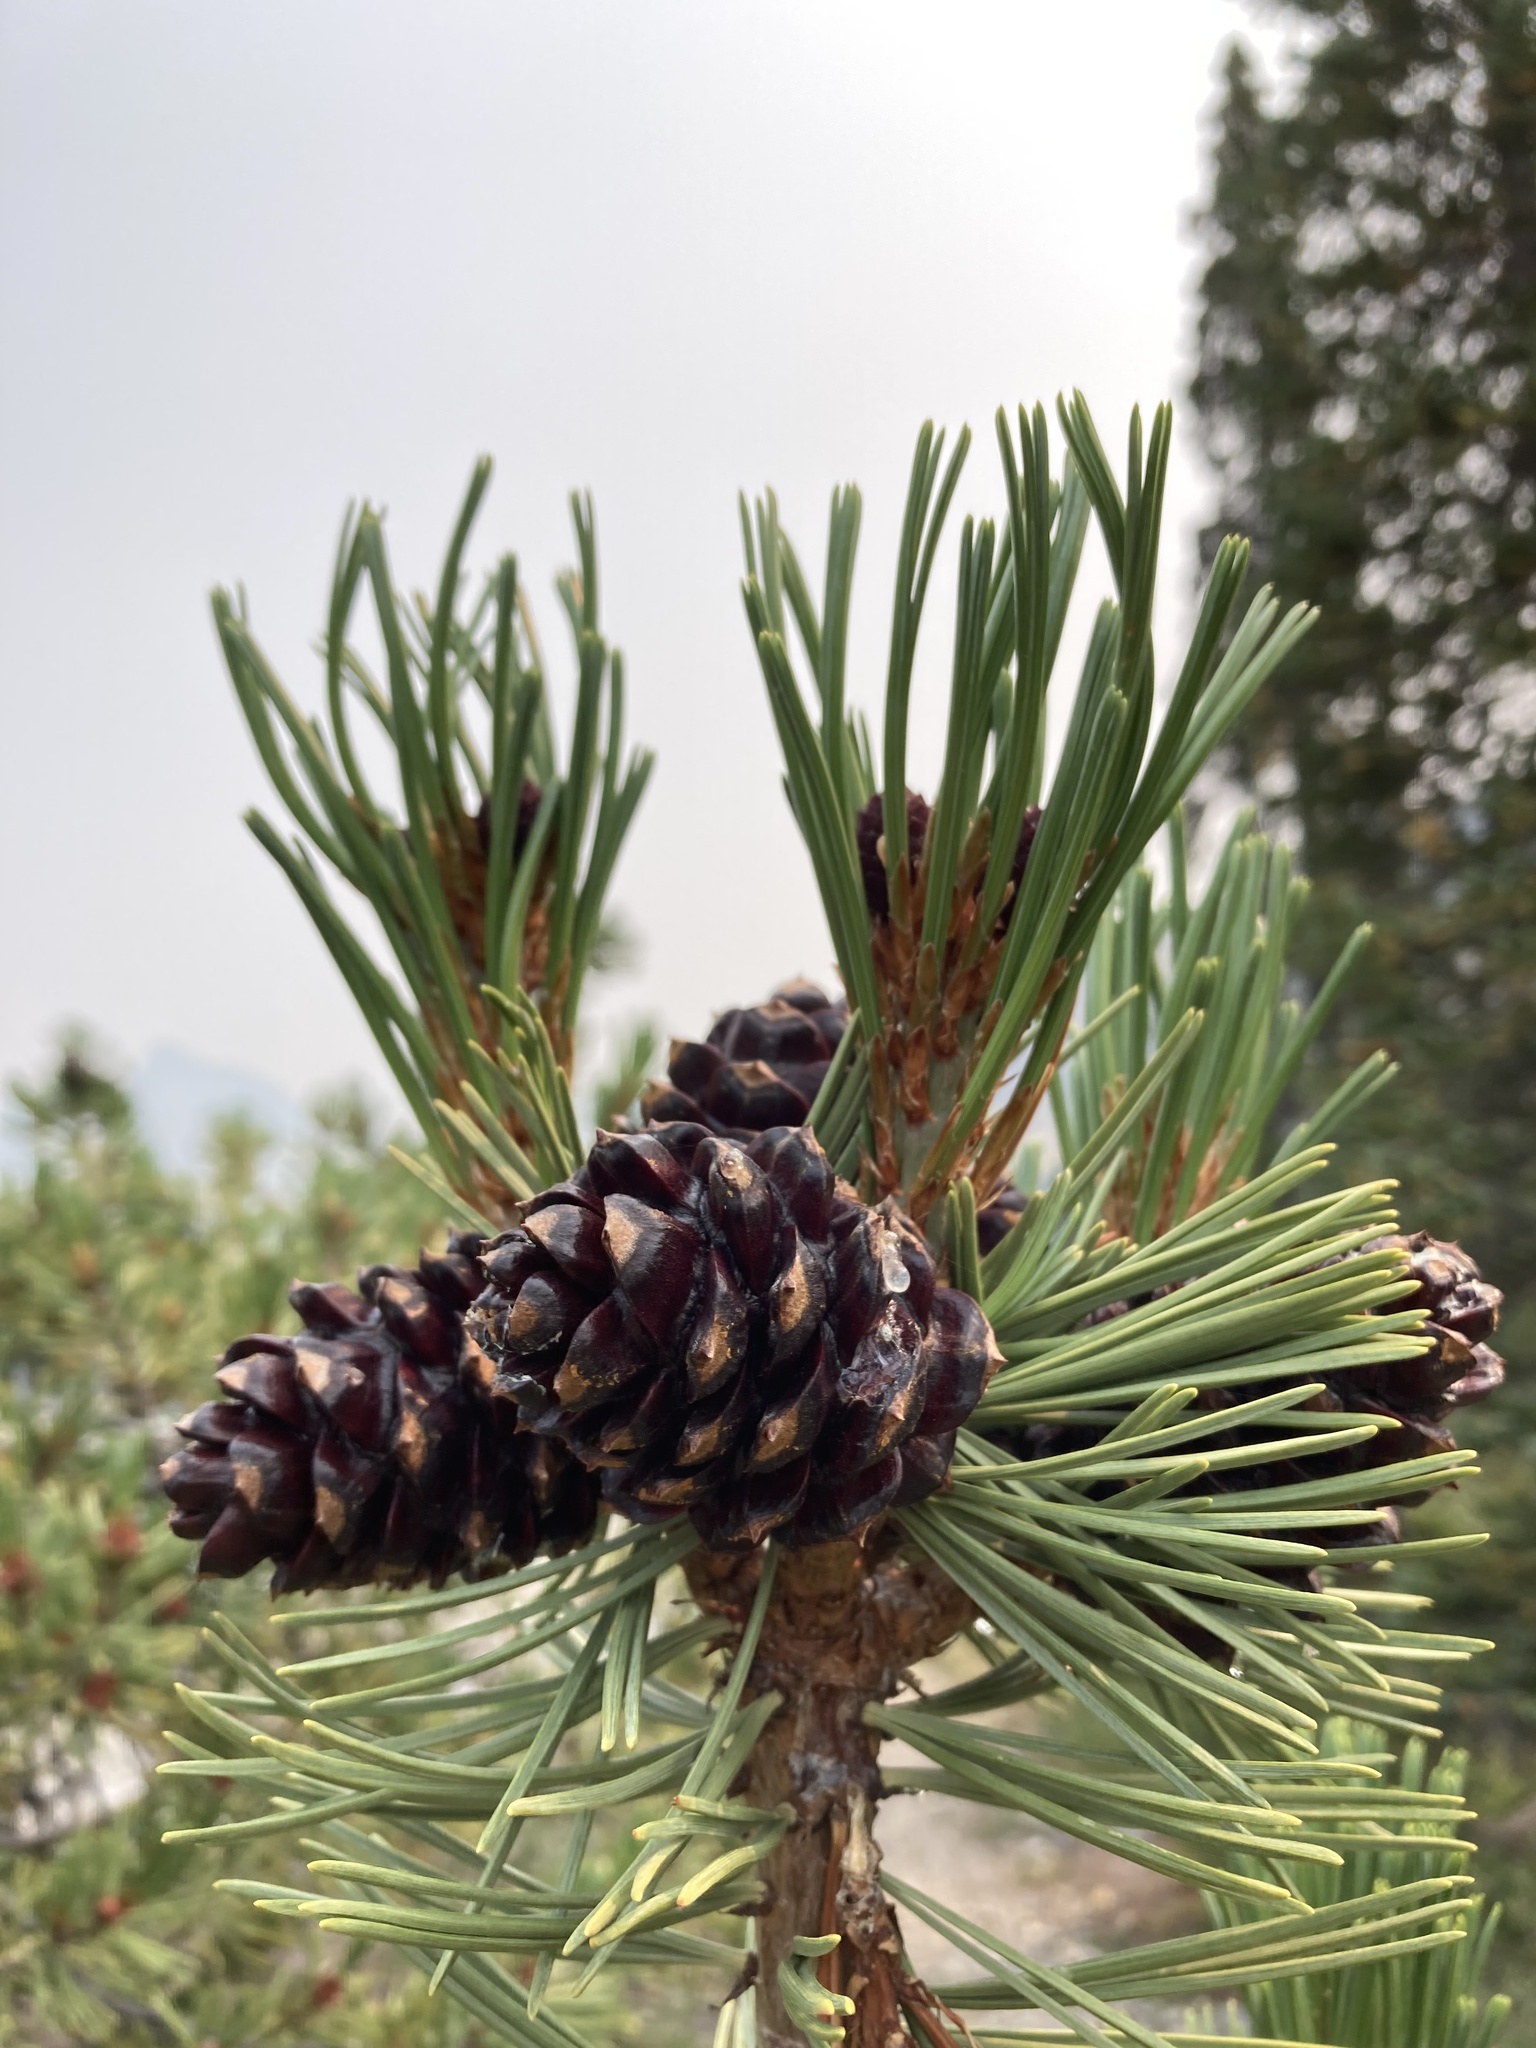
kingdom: Plantae
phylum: Tracheophyta
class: Pinopsida
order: Pinales
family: Pinaceae
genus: Pinus
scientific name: Pinus albicaulis
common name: Whitebark pine
